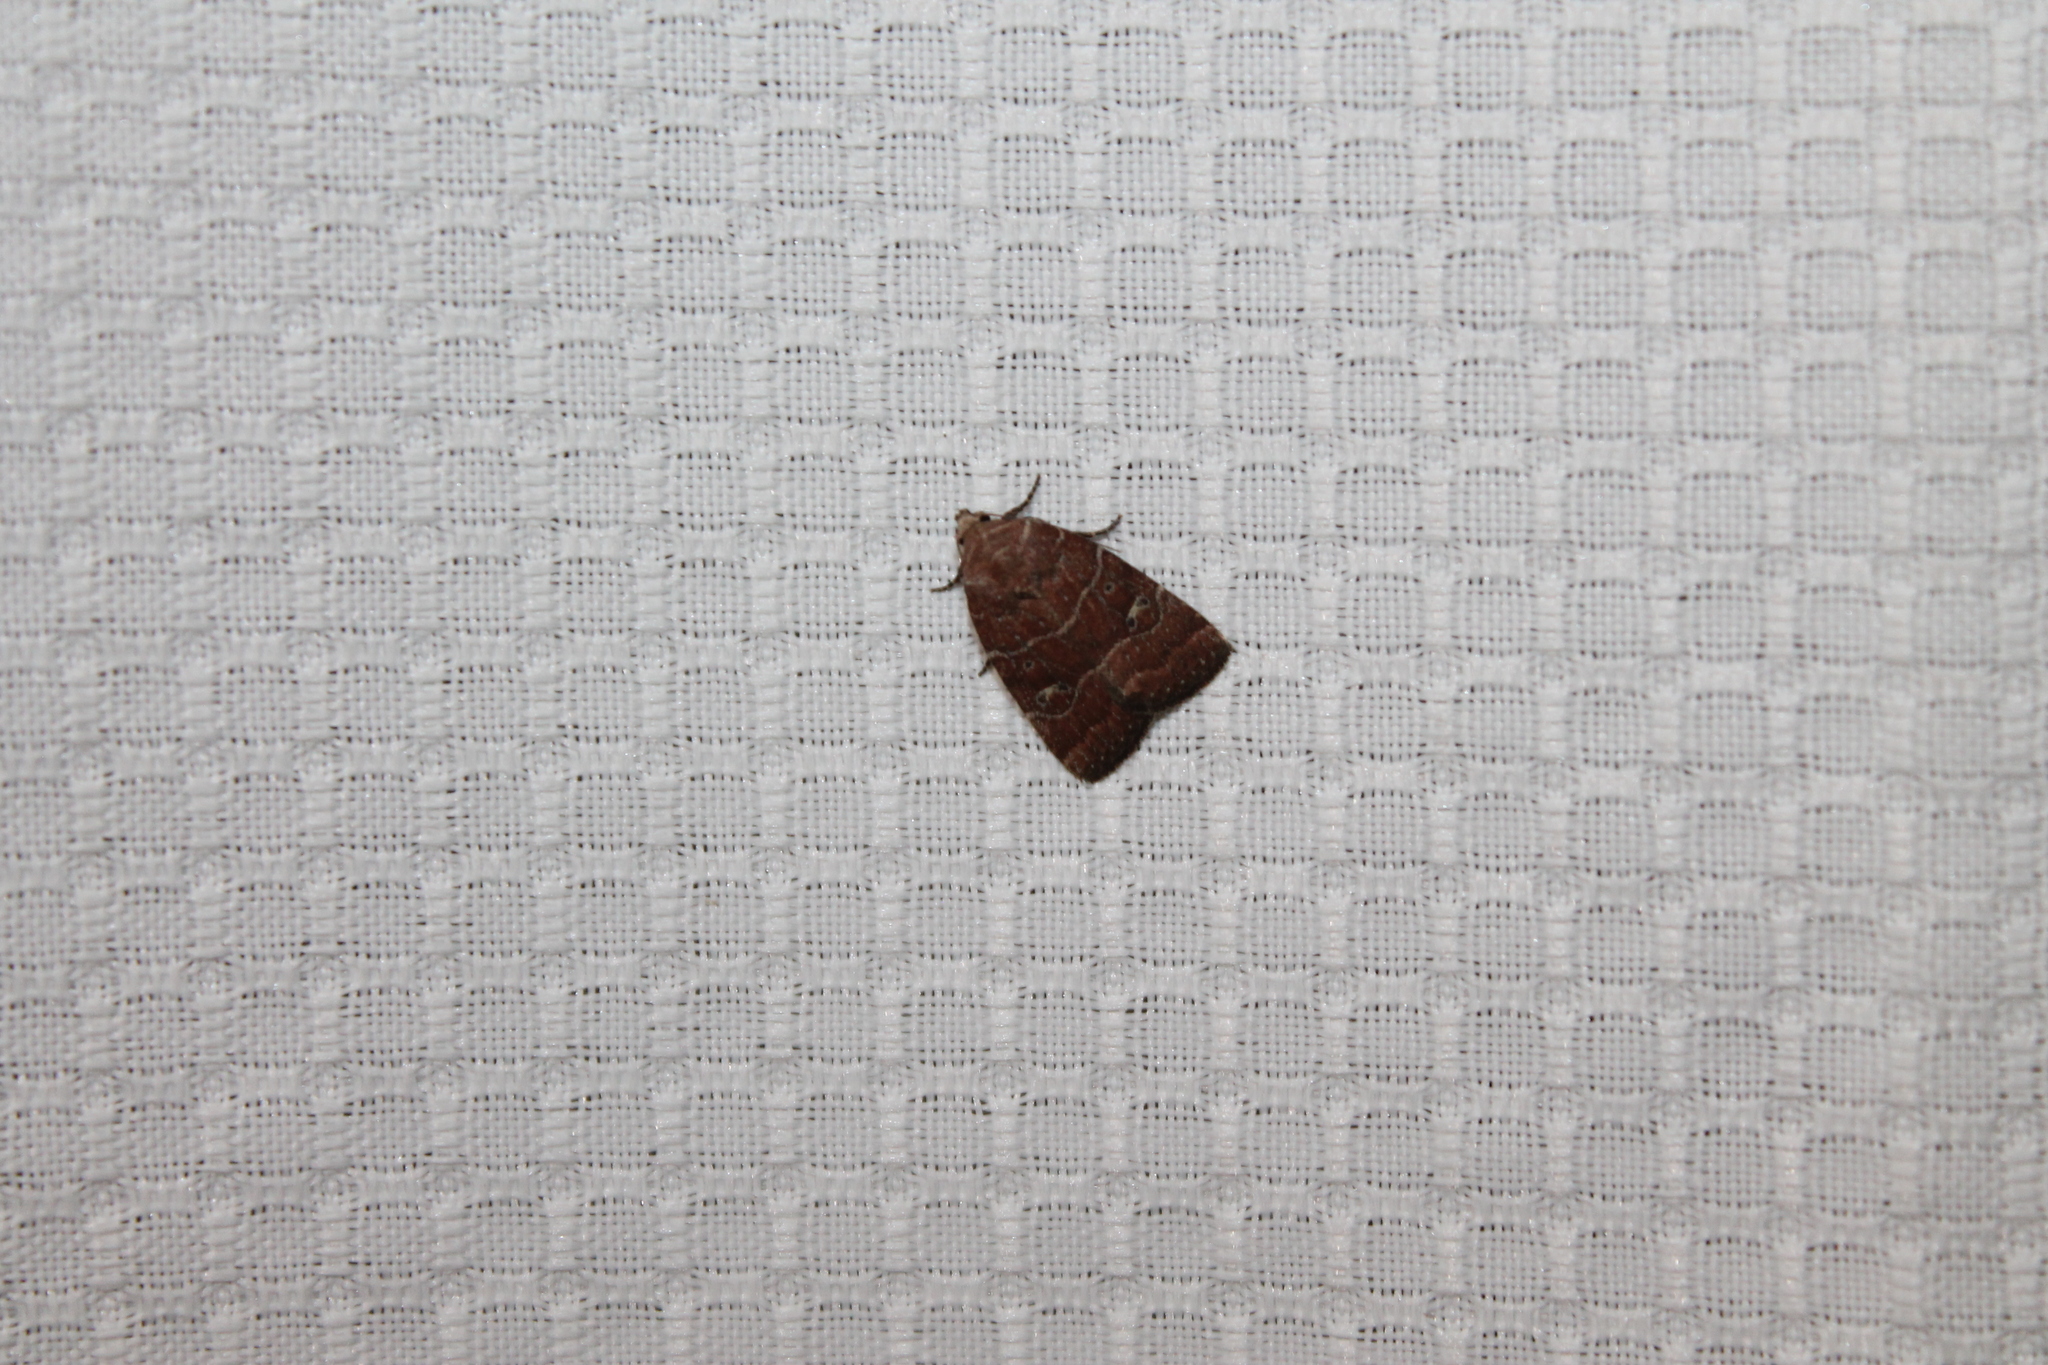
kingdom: Animalia
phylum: Arthropoda
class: Insecta
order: Lepidoptera
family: Noctuidae
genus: Elaphria
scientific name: Elaphria grata
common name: Grateful midget moth
